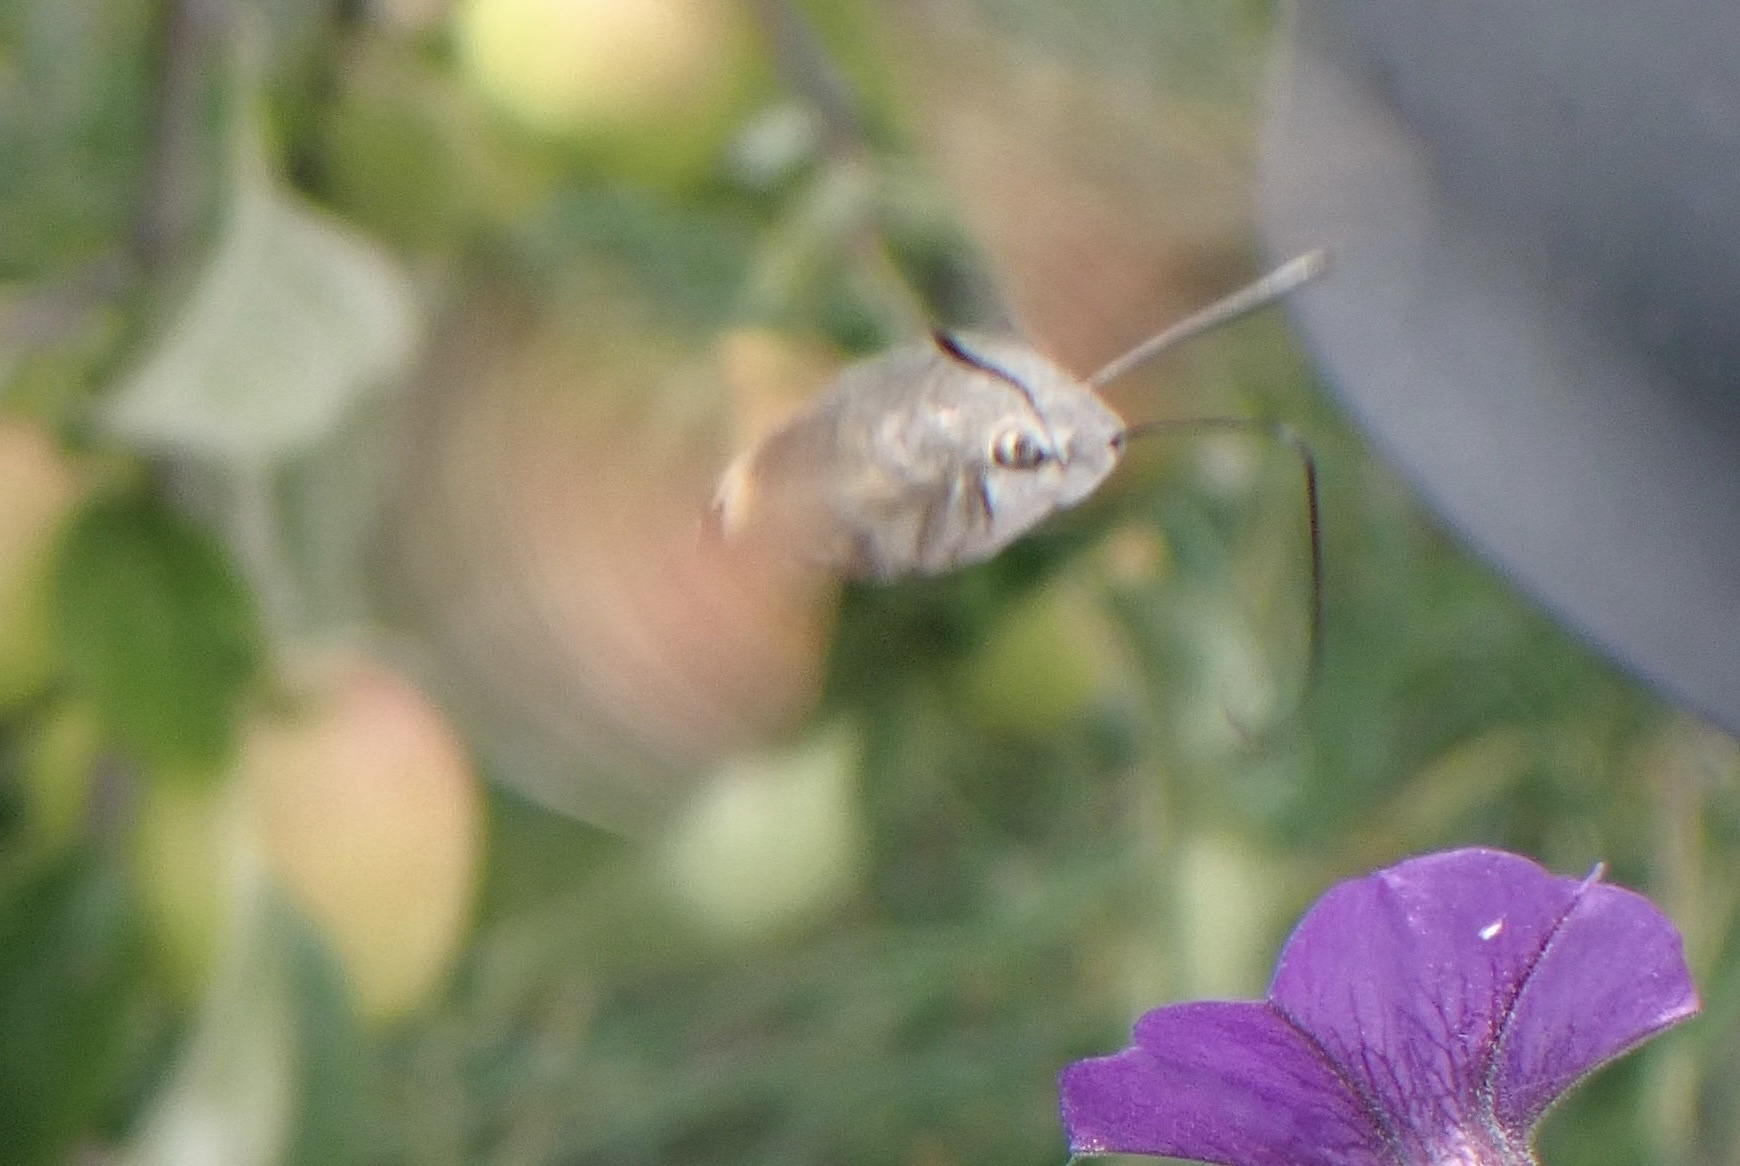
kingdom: Animalia
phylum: Arthropoda
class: Insecta
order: Lepidoptera
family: Sphingidae
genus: Macroglossum
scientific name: Macroglossum stellatarum
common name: Humming-bird hawk-moth
